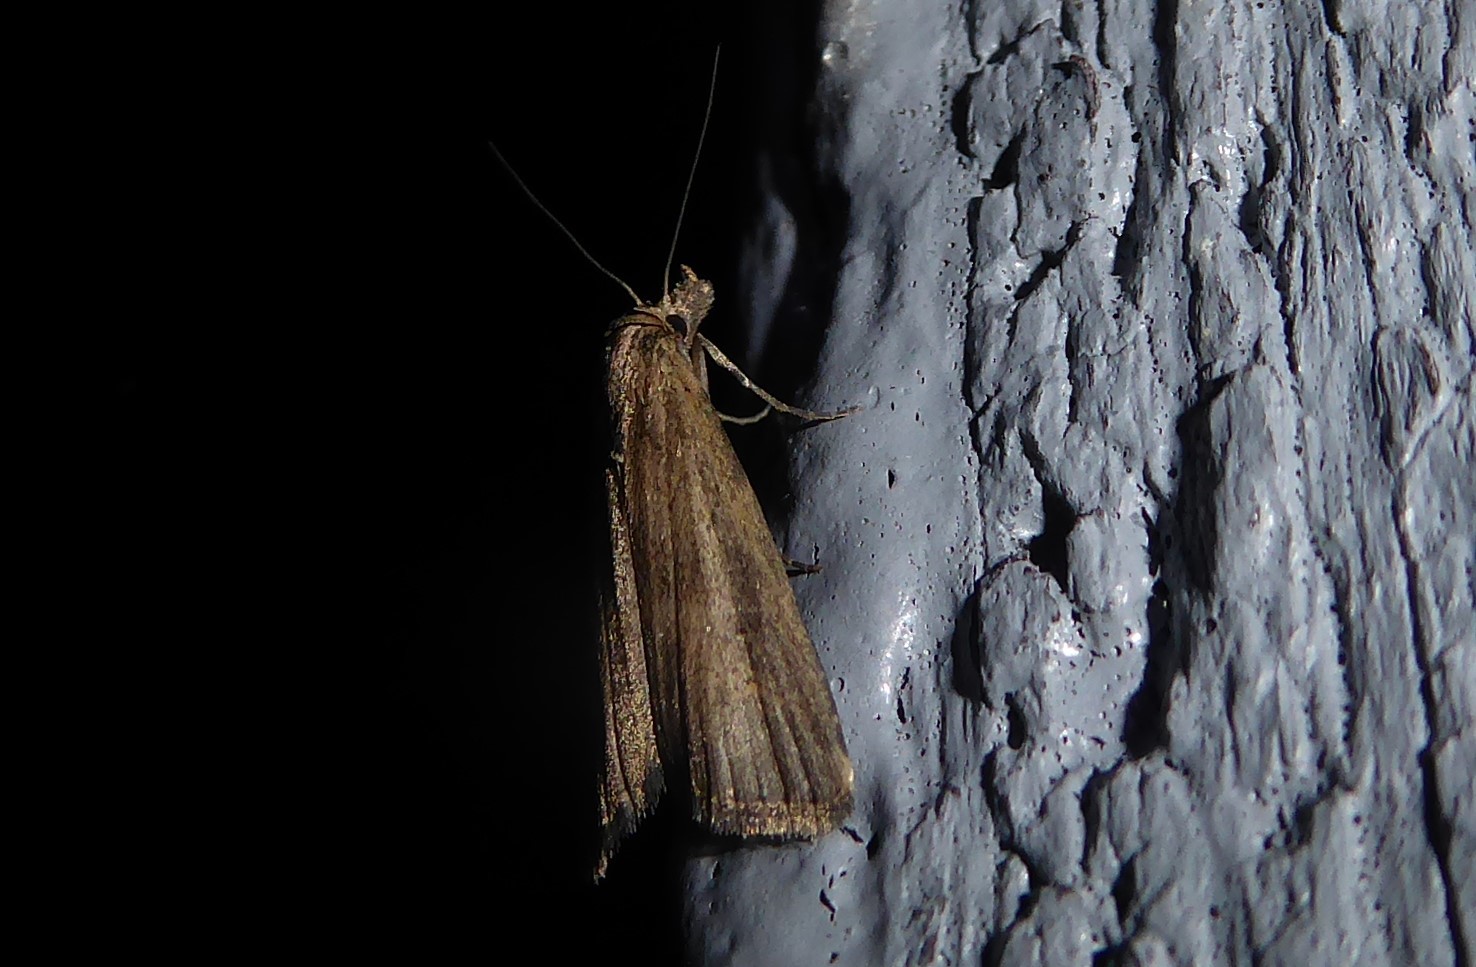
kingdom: Animalia
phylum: Arthropoda
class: Insecta
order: Lepidoptera
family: Erebidae
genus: Schrankia
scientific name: Schrankia costaestrigalis
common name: Pinion-streaked snout
